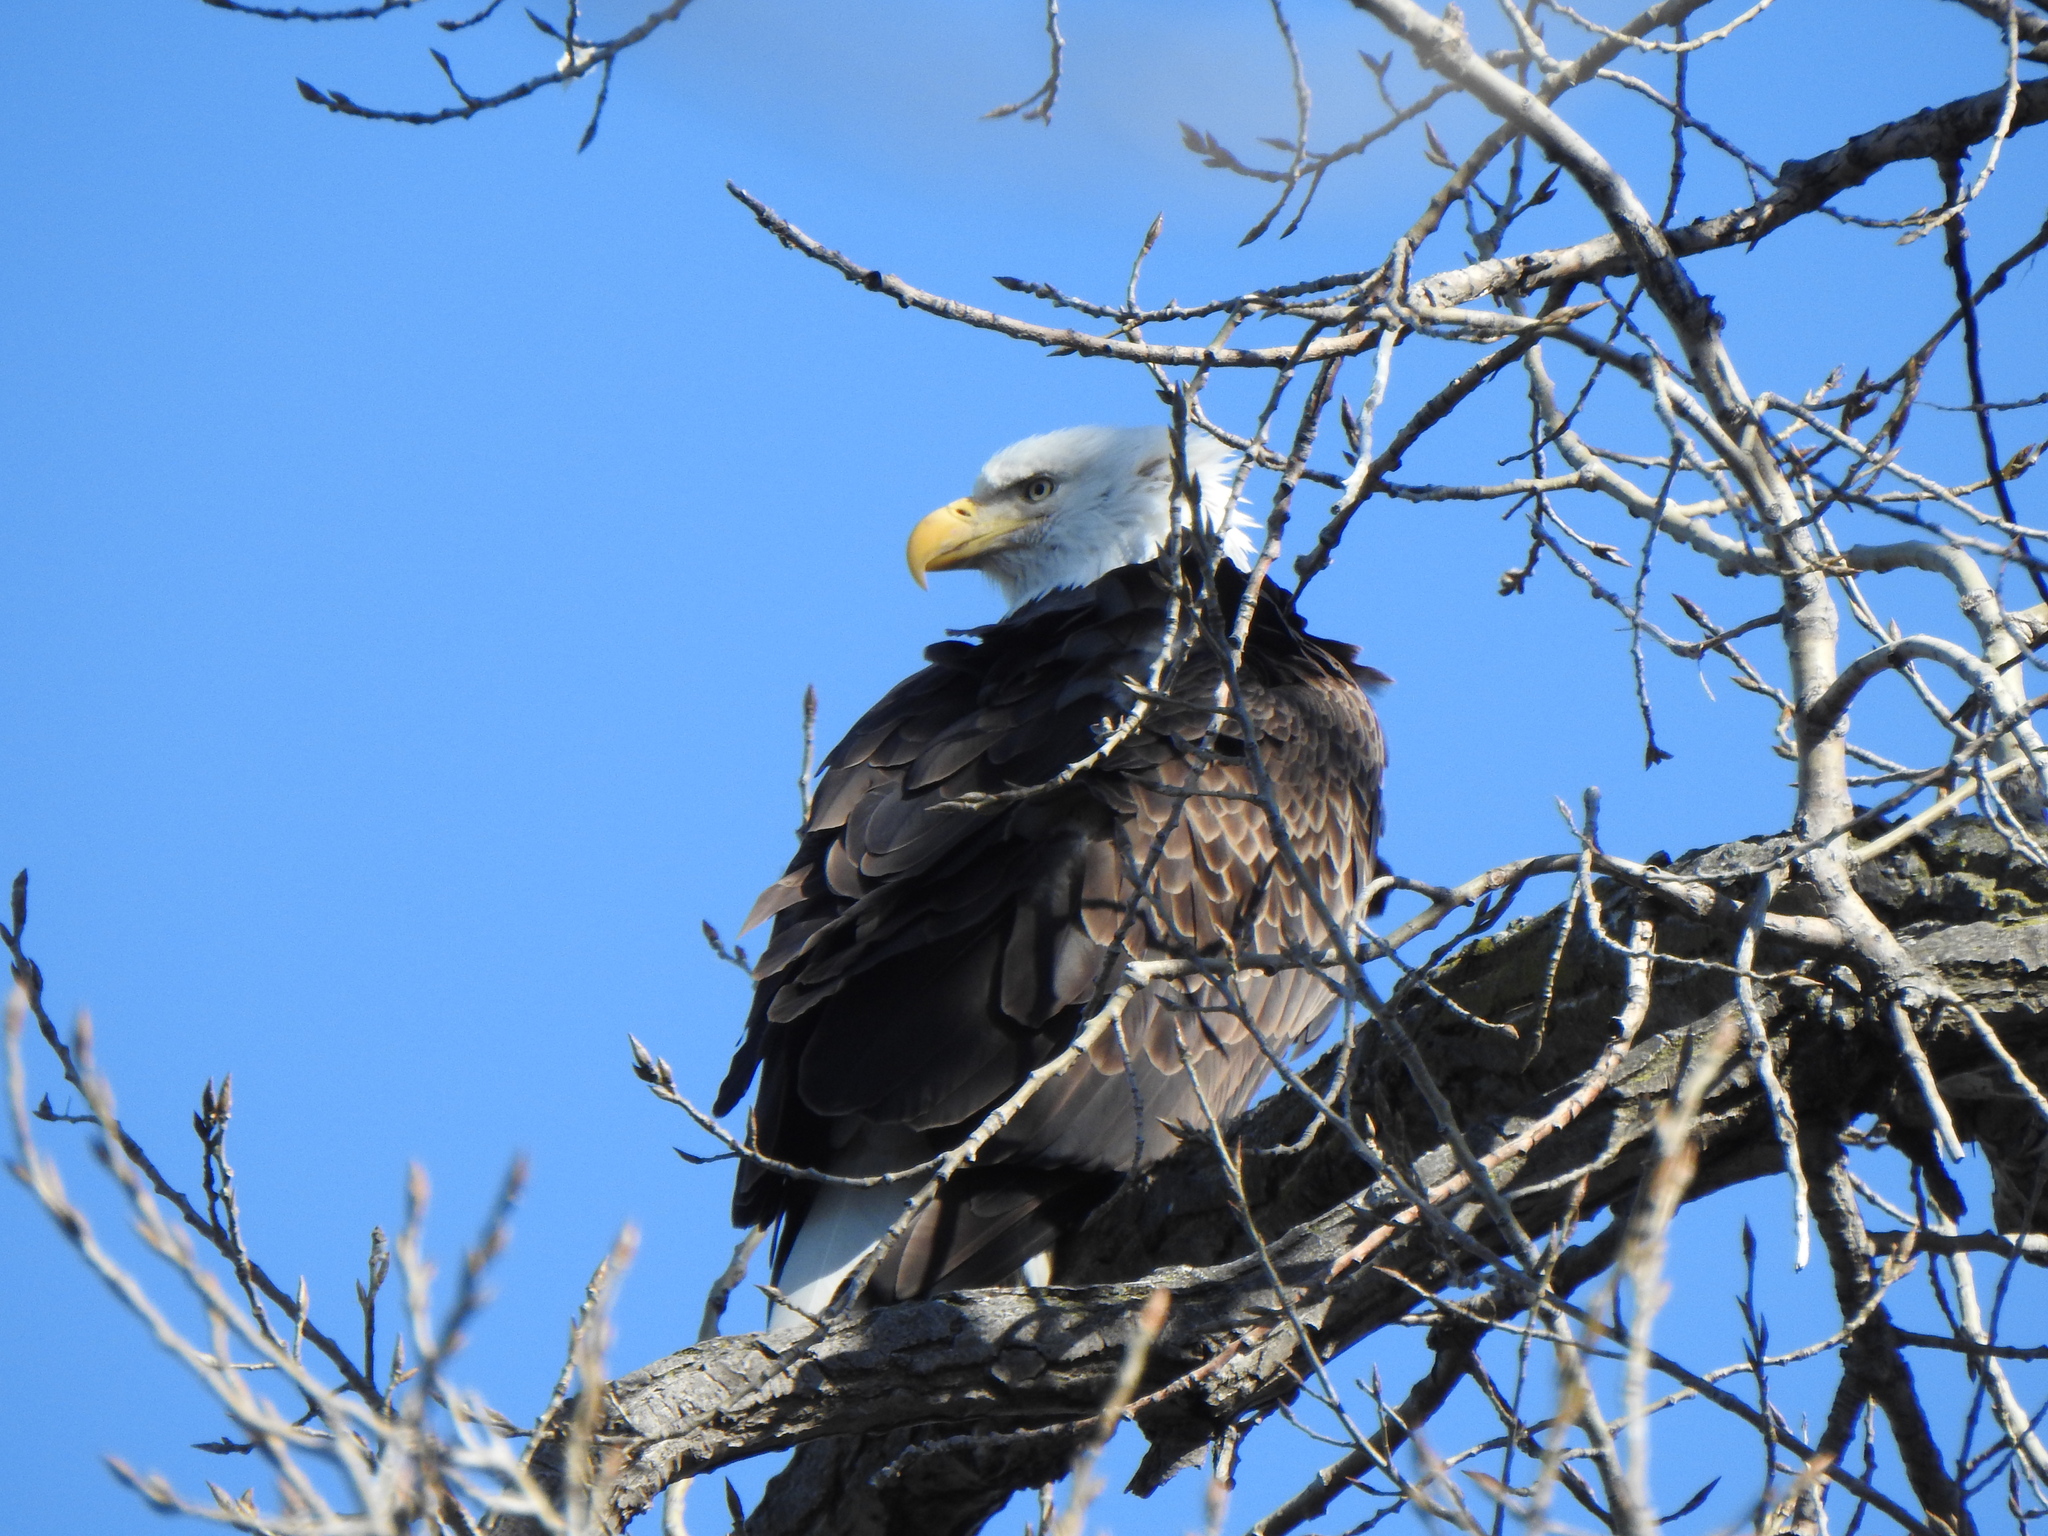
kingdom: Animalia
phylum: Chordata
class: Aves
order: Accipitriformes
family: Accipitridae
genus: Haliaeetus
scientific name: Haliaeetus leucocephalus
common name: Bald eagle
